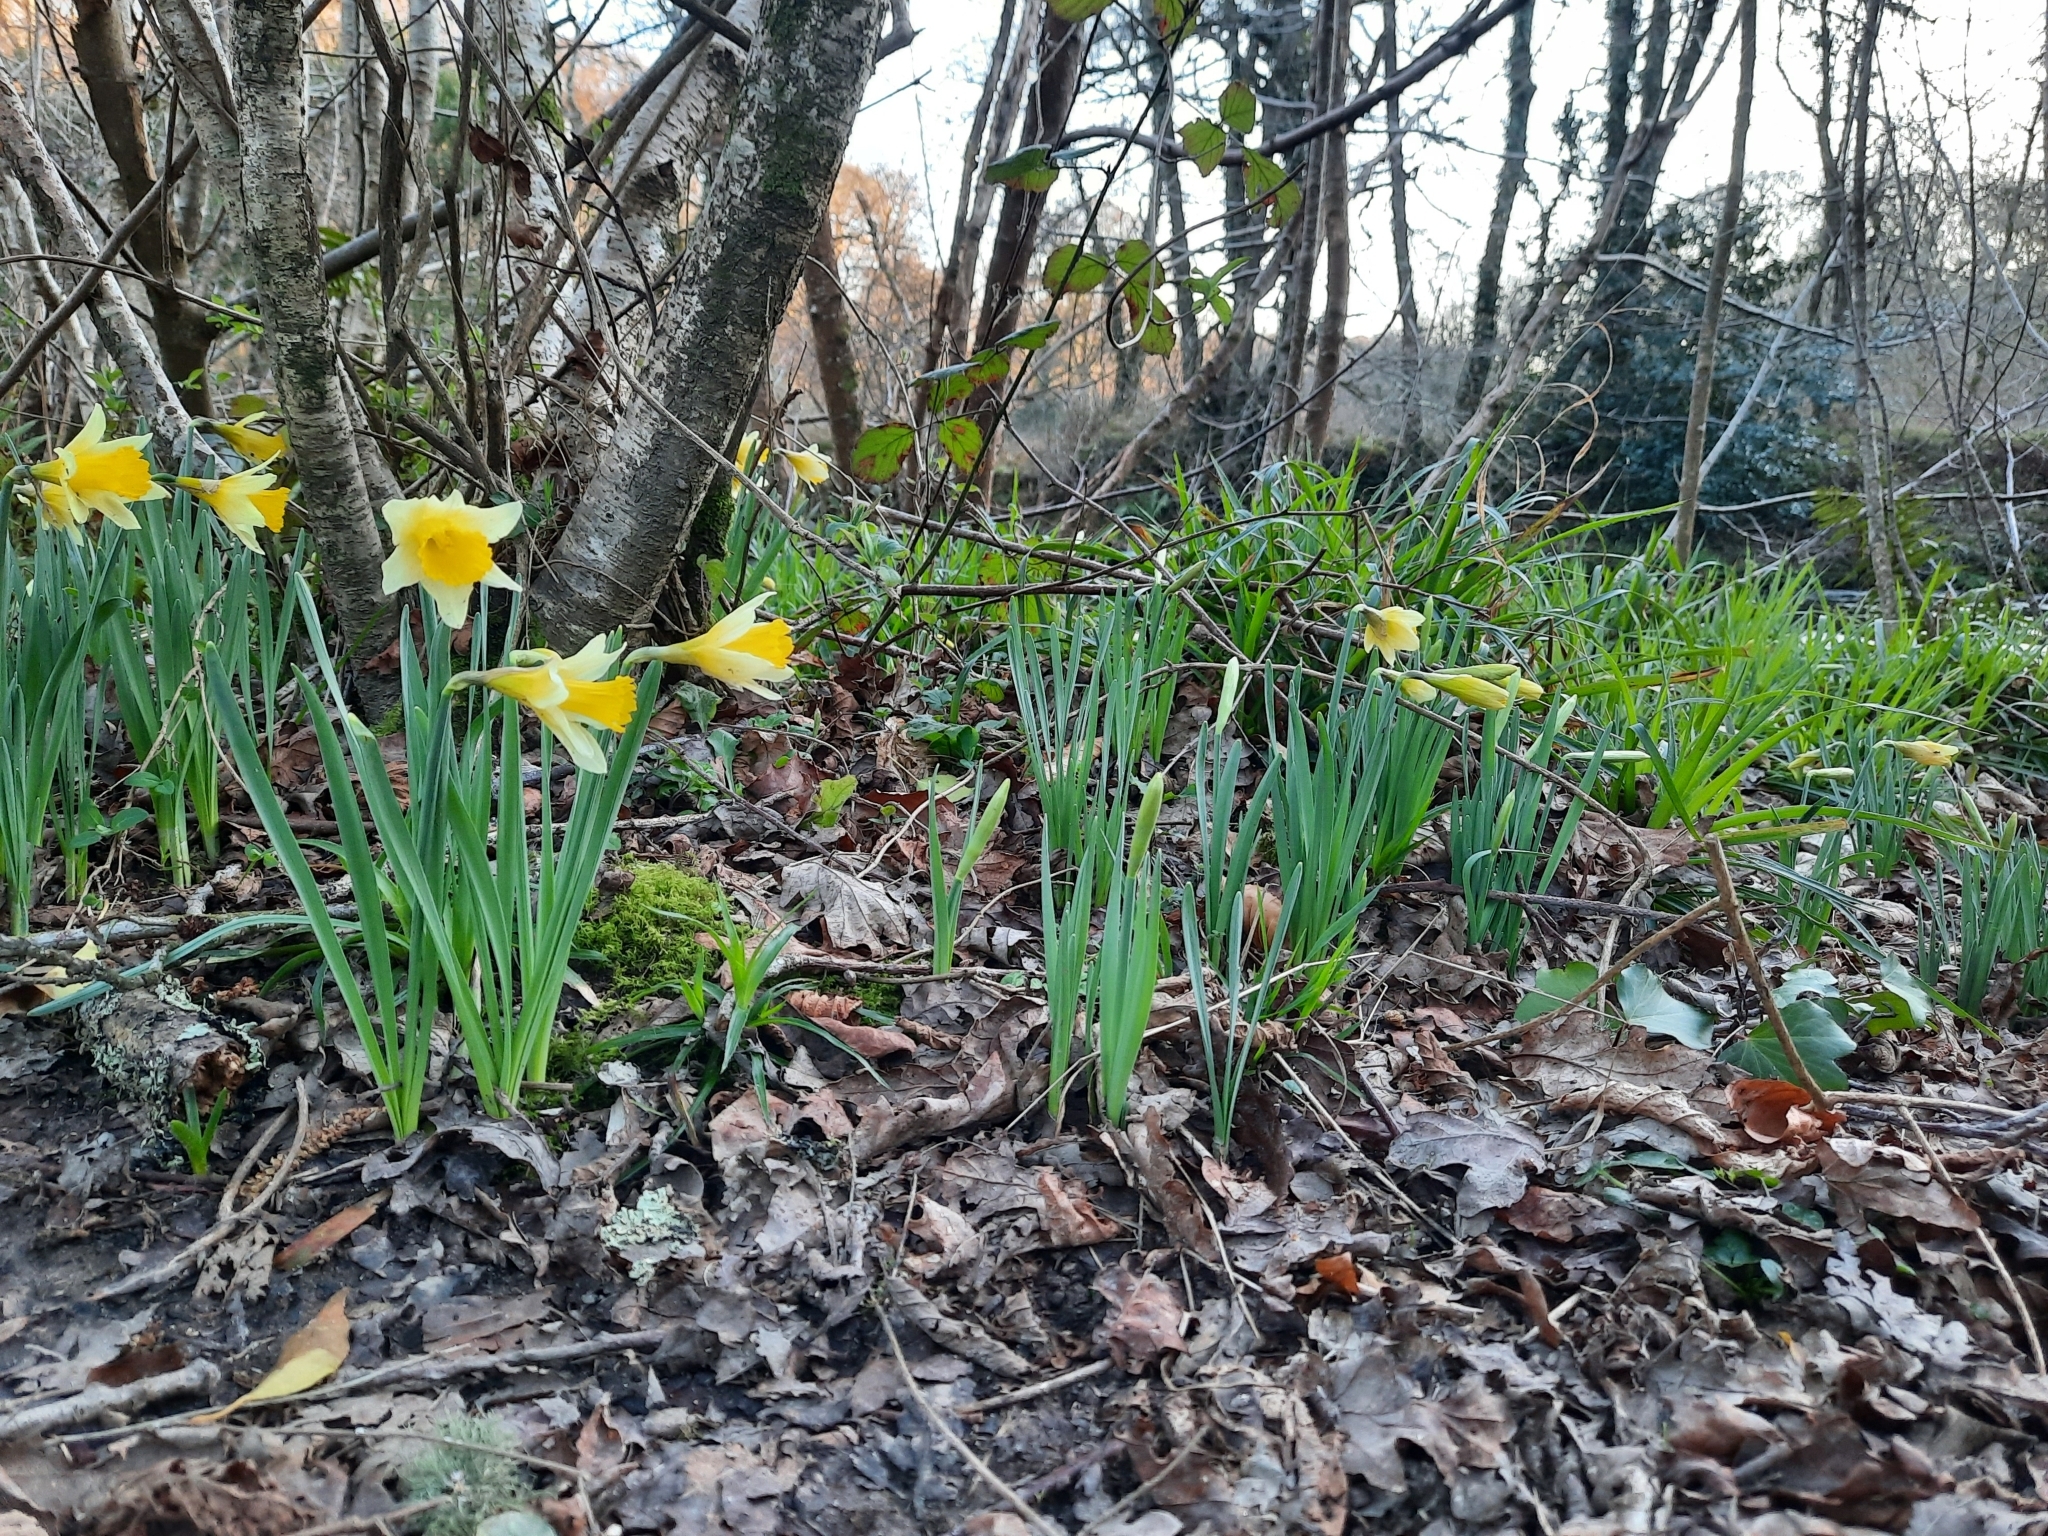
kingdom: Plantae
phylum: Tracheophyta
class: Liliopsida
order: Asparagales
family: Amaryllidaceae
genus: Narcissus
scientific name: Narcissus pseudonarcissus
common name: Daffodil
